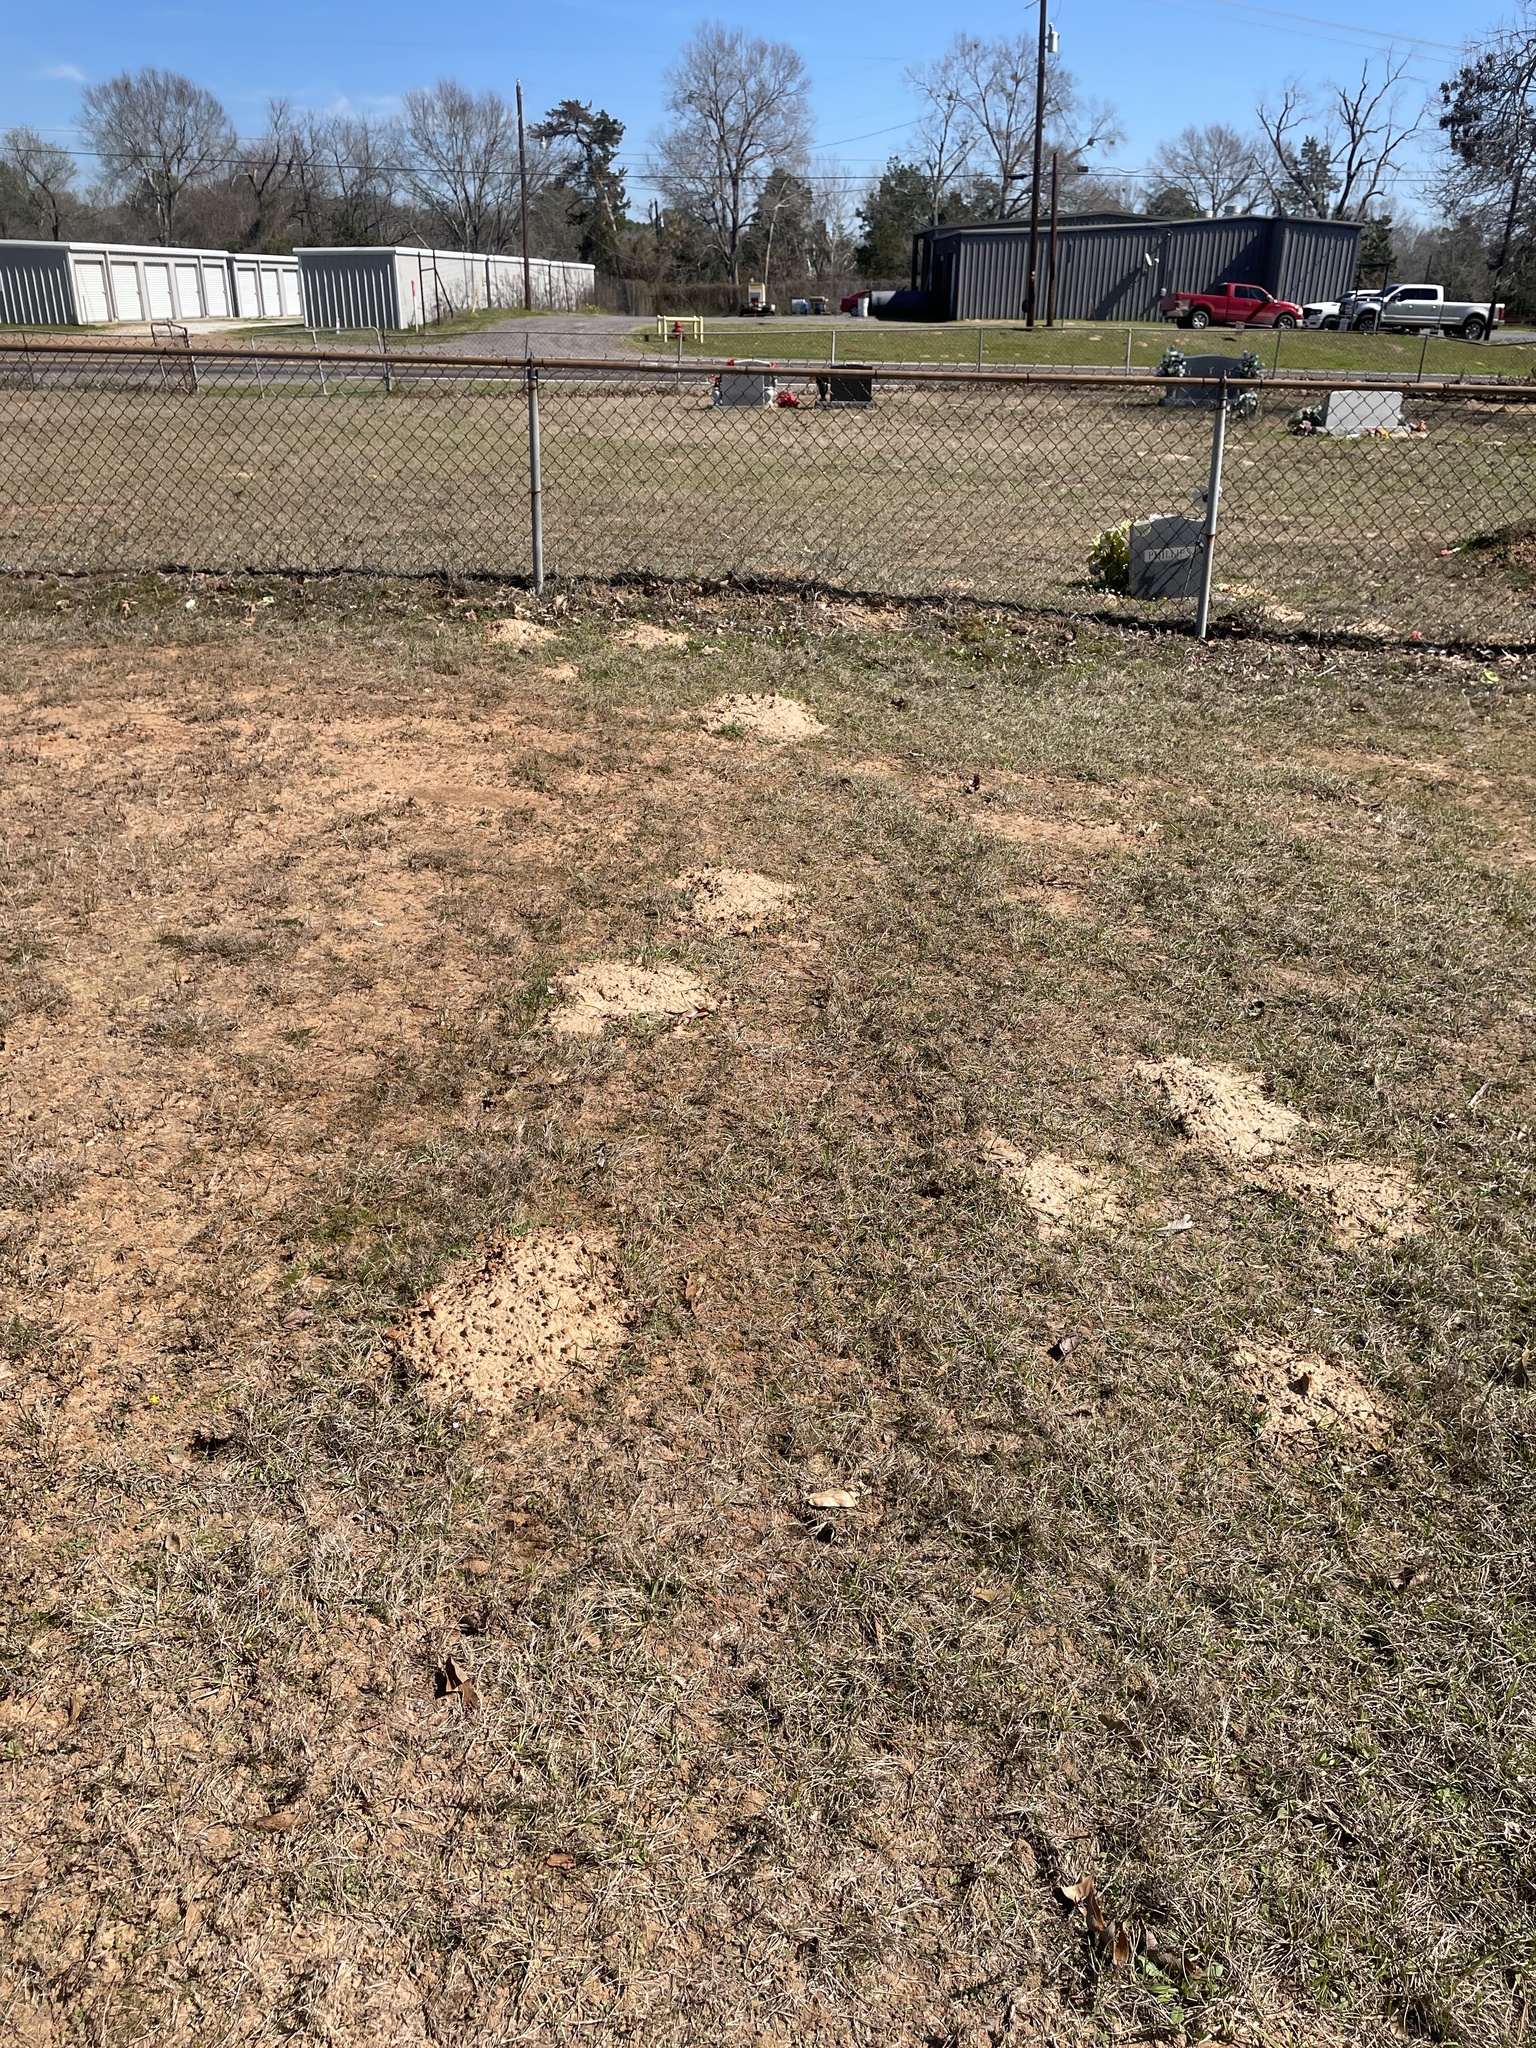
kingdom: Animalia
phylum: Chordata
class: Mammalia
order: Rodentia
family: Geomyidae
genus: Geomys
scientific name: Geomys breviceps
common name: Baird's pocket gopher
